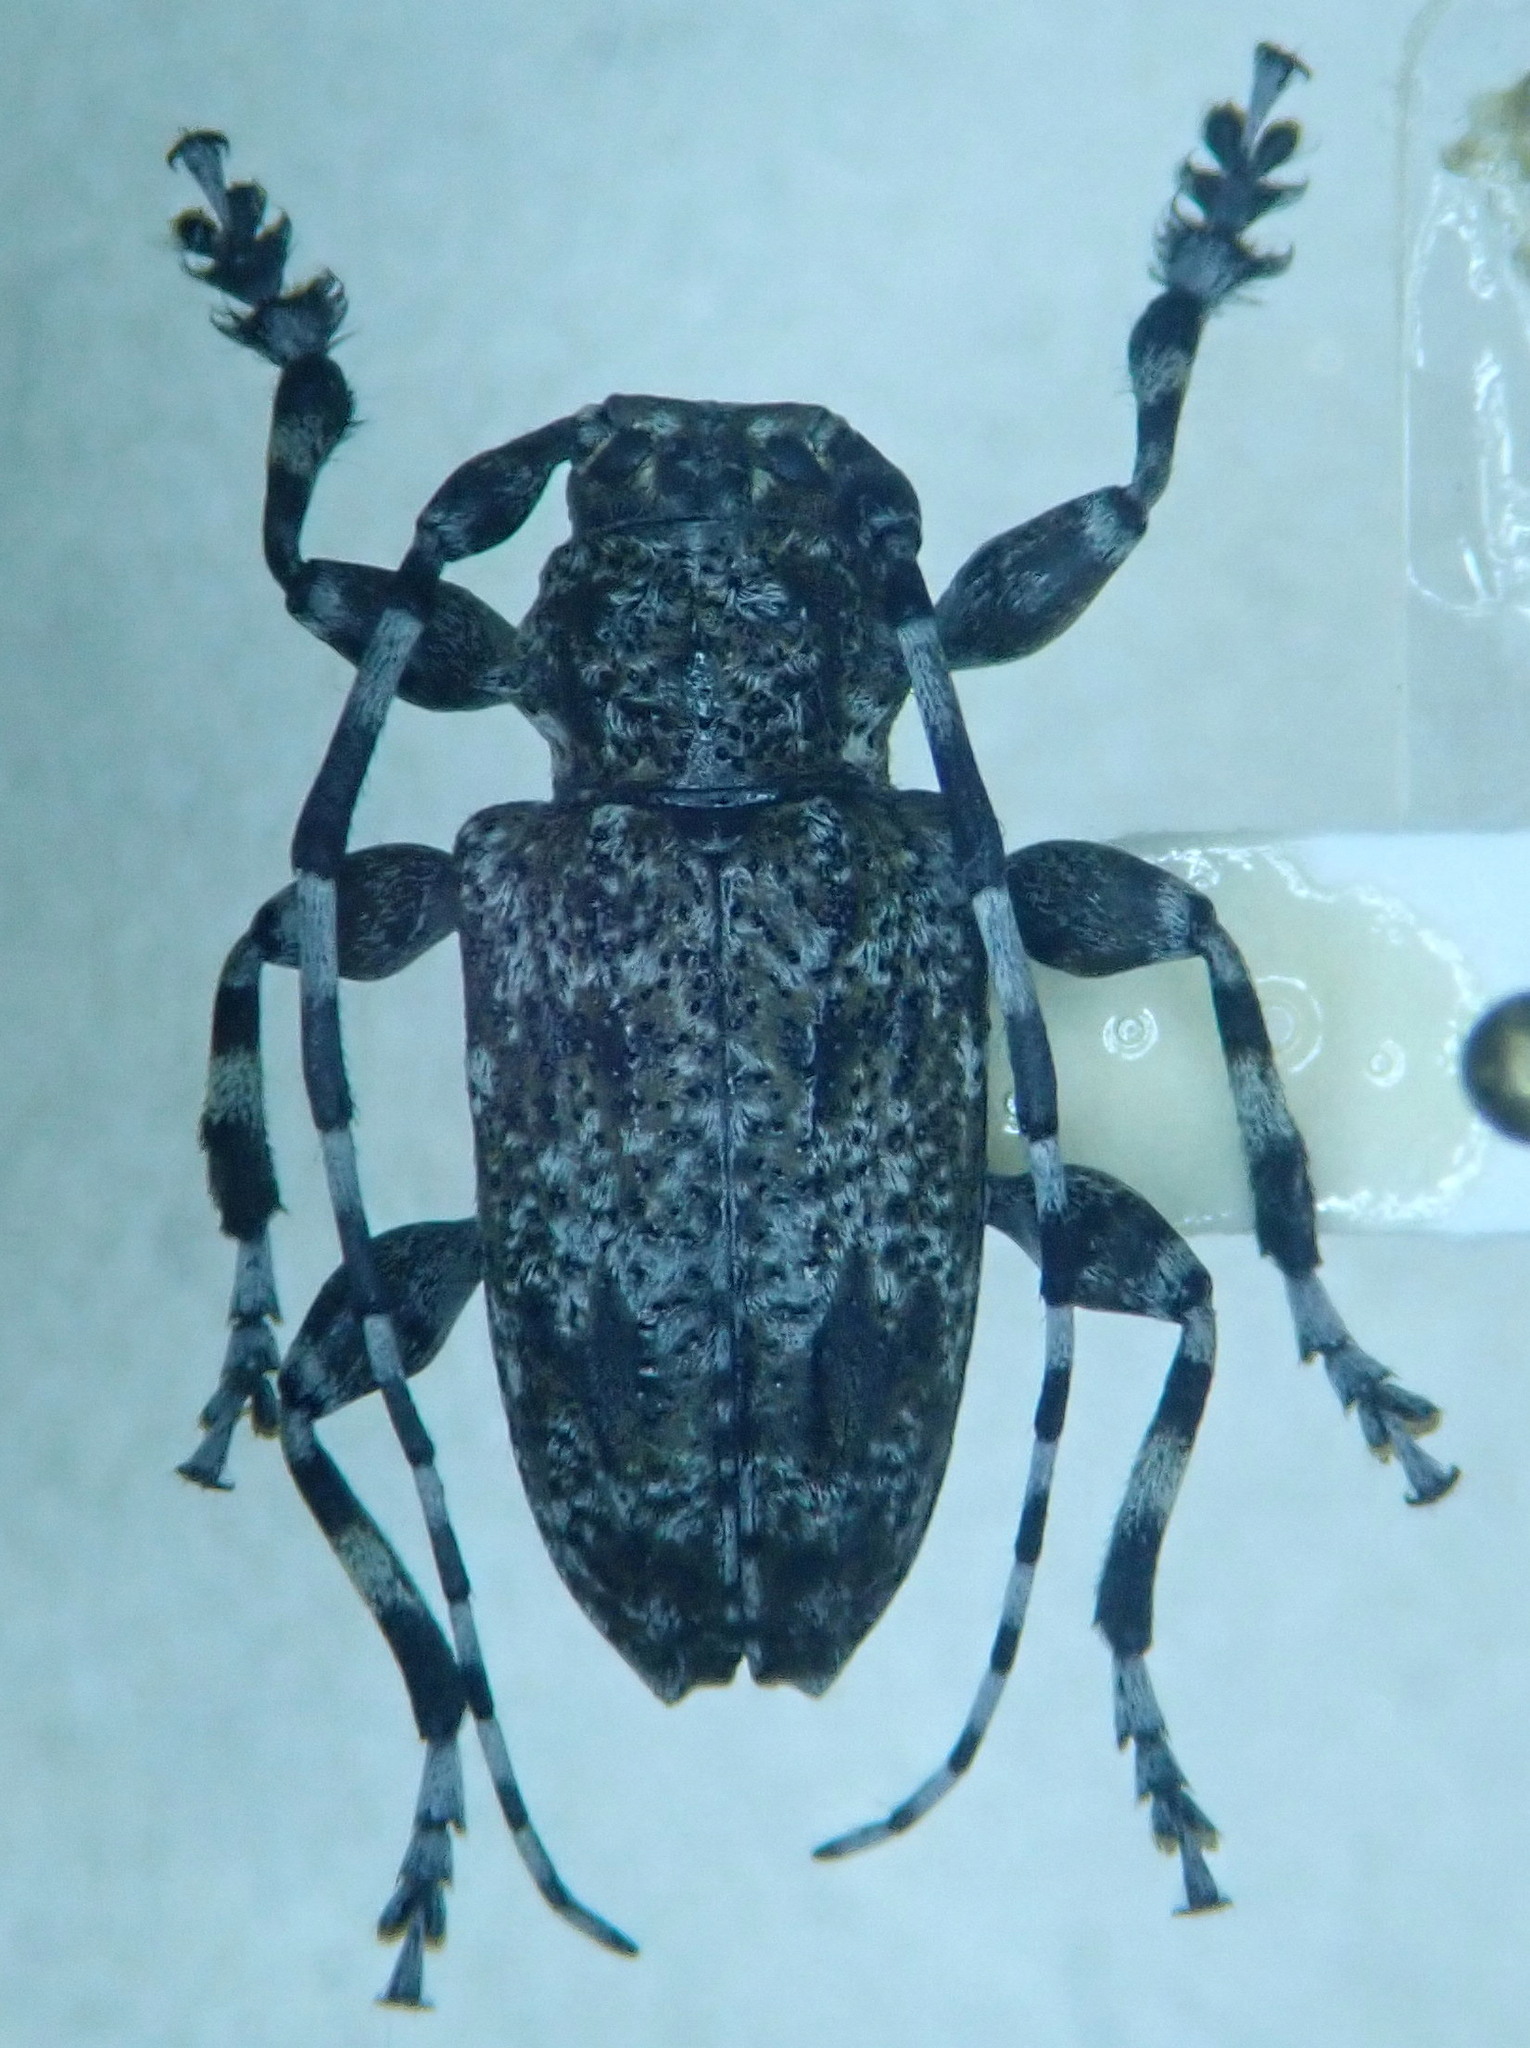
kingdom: Animalia
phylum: Arthropoda
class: Insecta
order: Coleoptera
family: Cerambycidae
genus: Aegomorphus
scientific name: Aegomorphus clavipes
